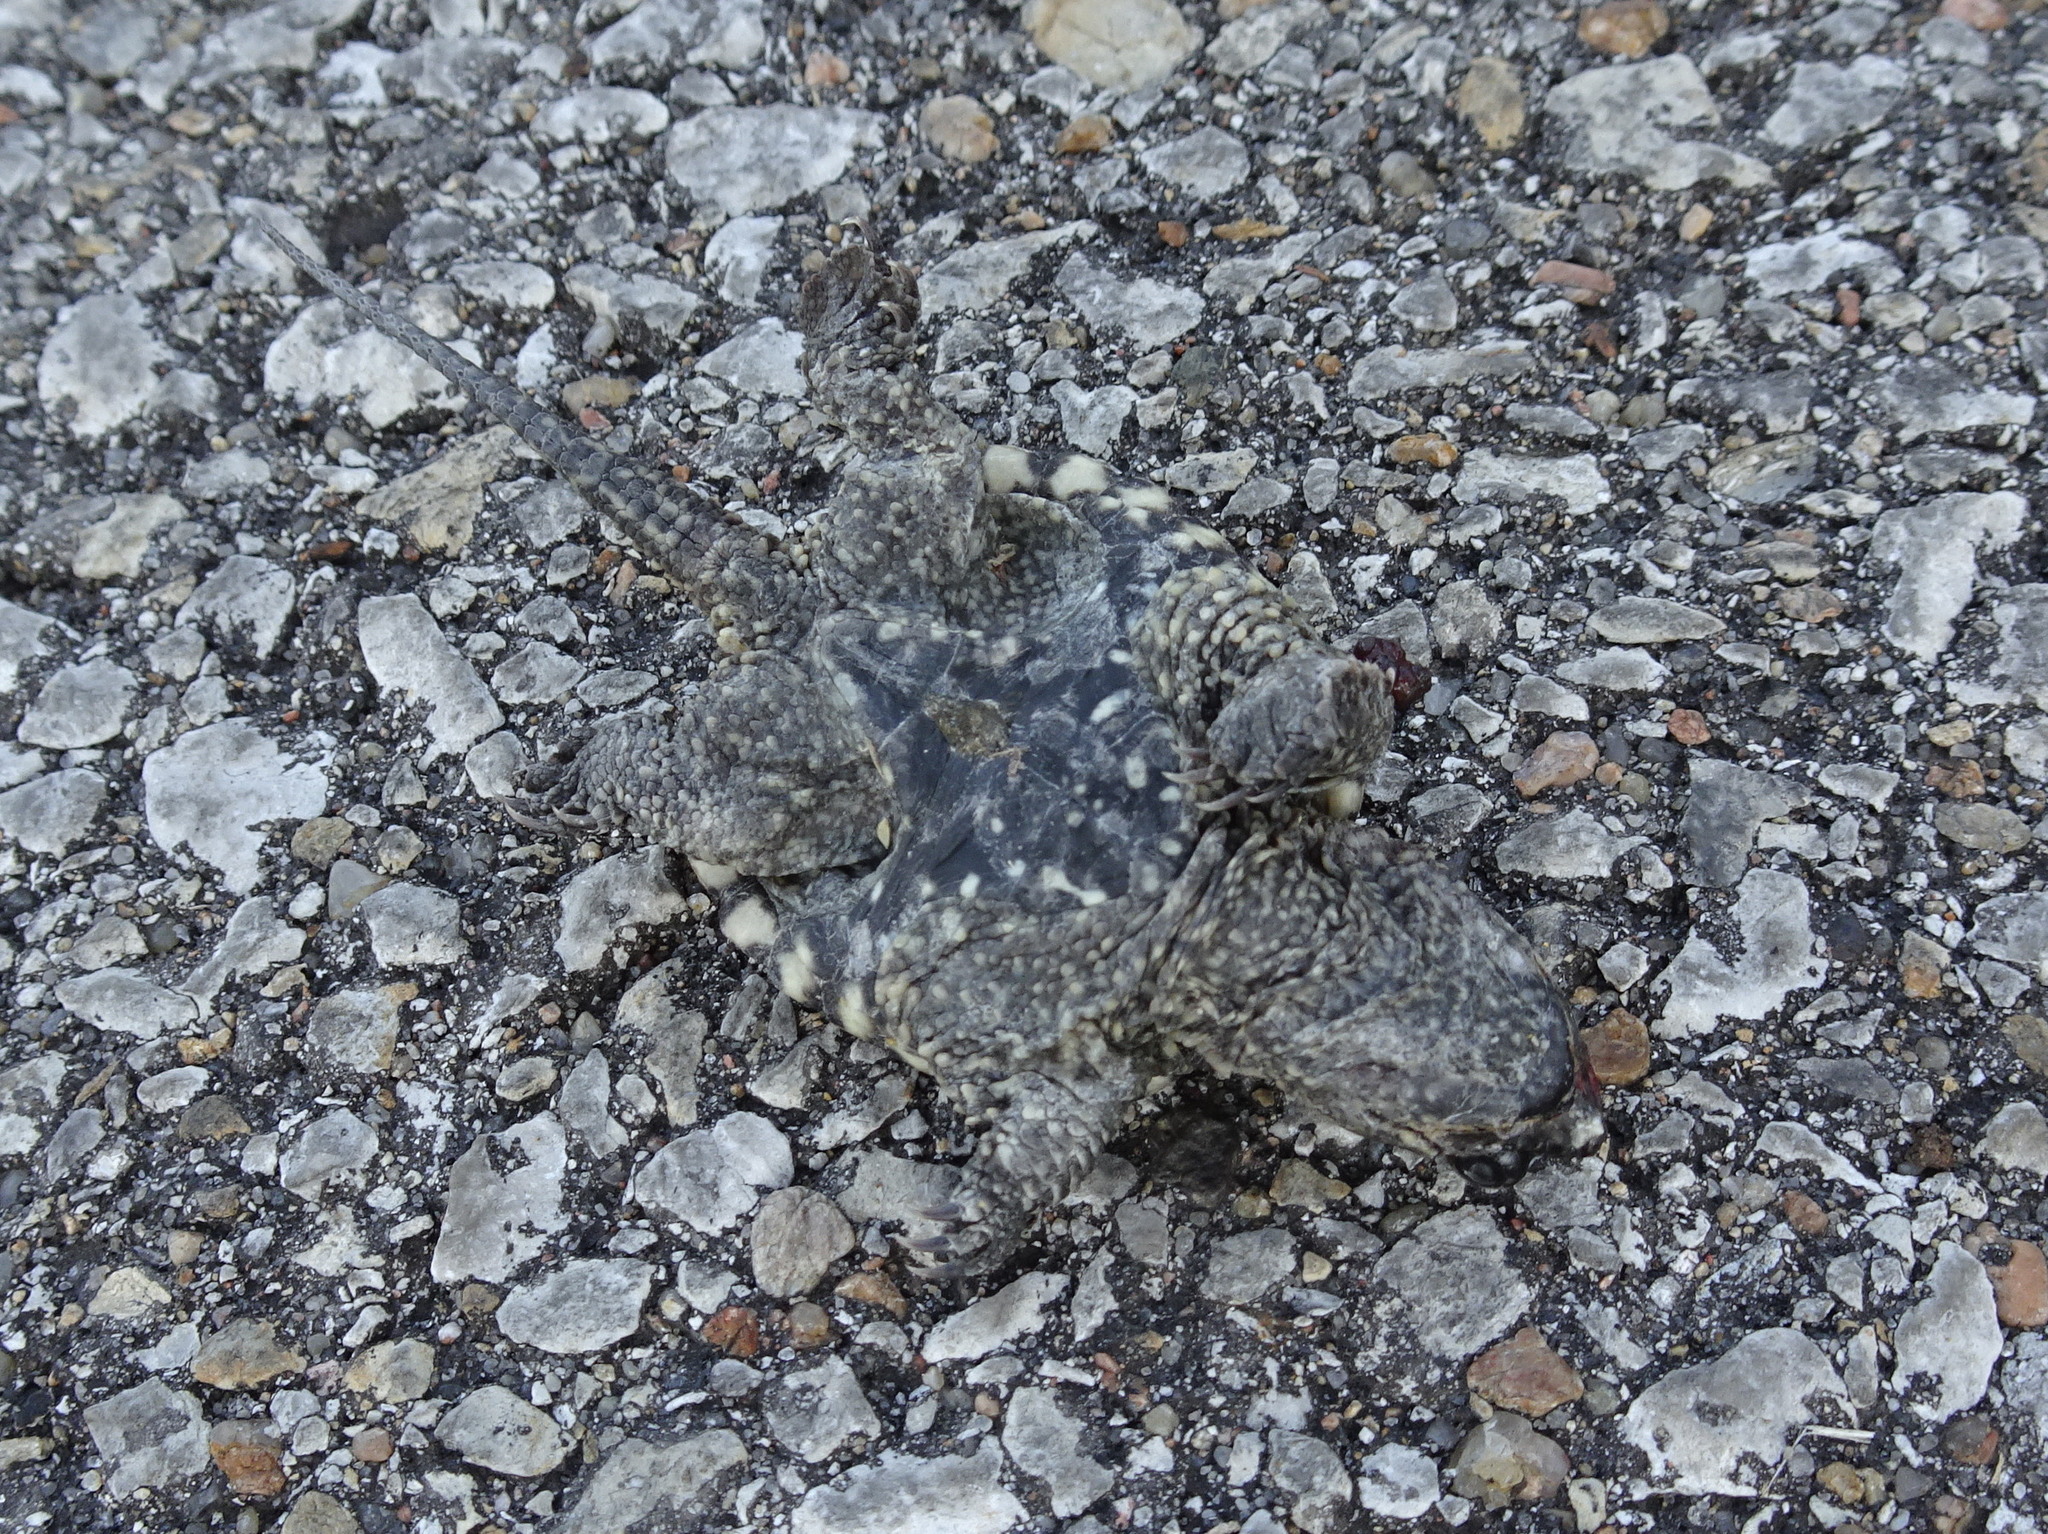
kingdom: Animalia
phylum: Chordata
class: Testudines
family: Chelydridae
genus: Chelydra
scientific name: Chelydra serpentina
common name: Common snapping turtle
